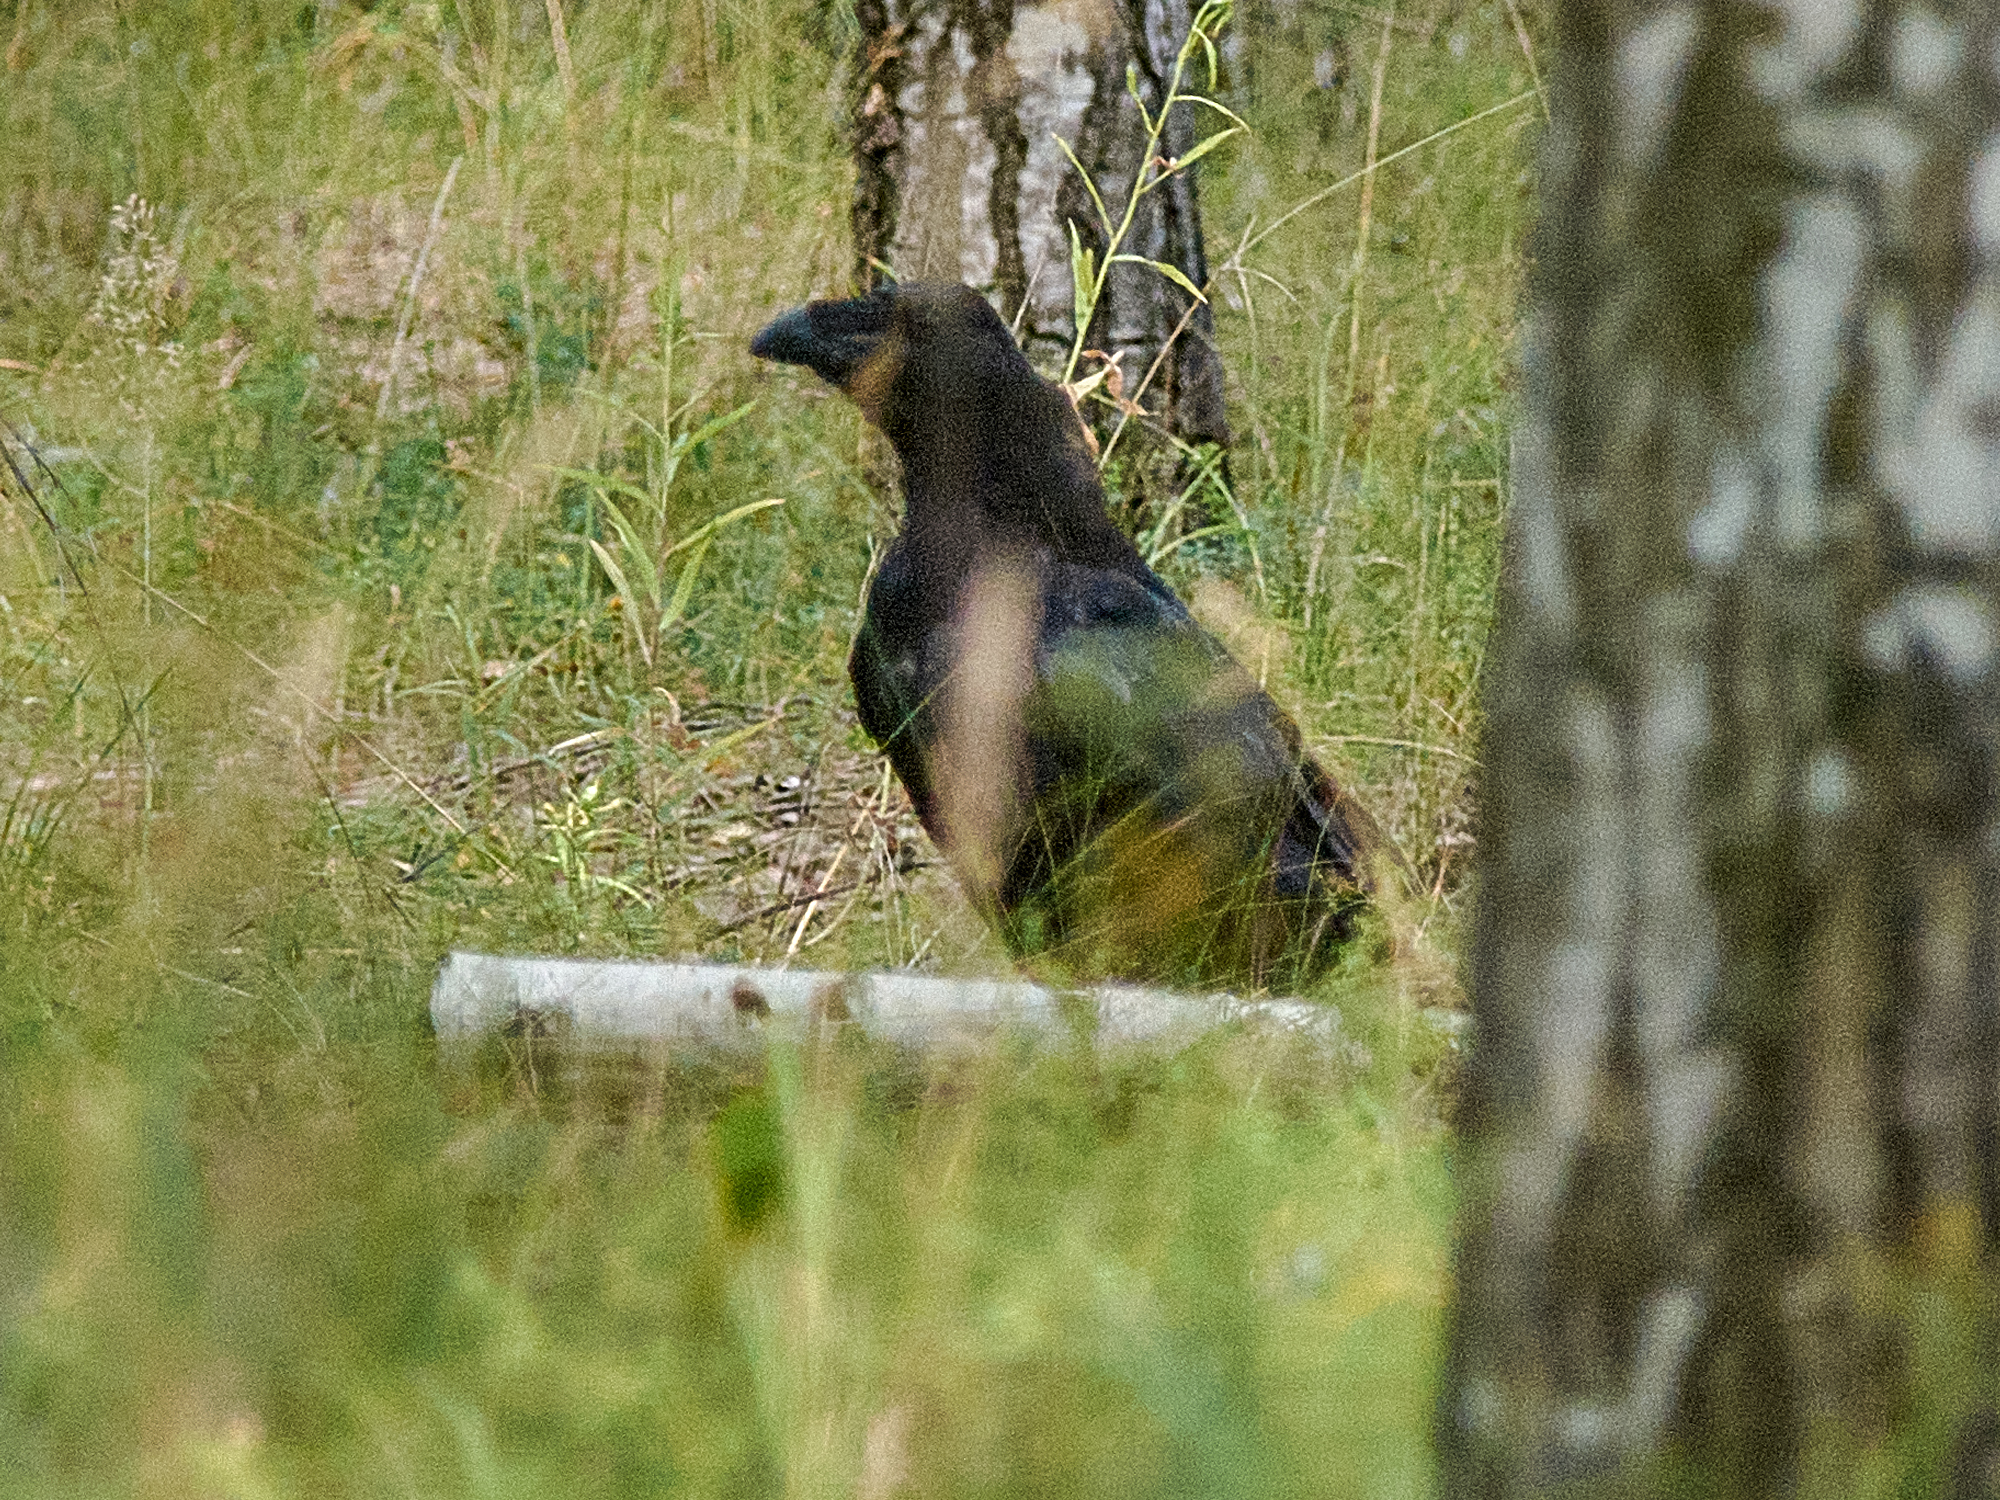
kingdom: Animalia
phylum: Chordata
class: Aves
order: Passeriformes
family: Corvidae
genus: Corvus
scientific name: Corvus corax
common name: Common raven
